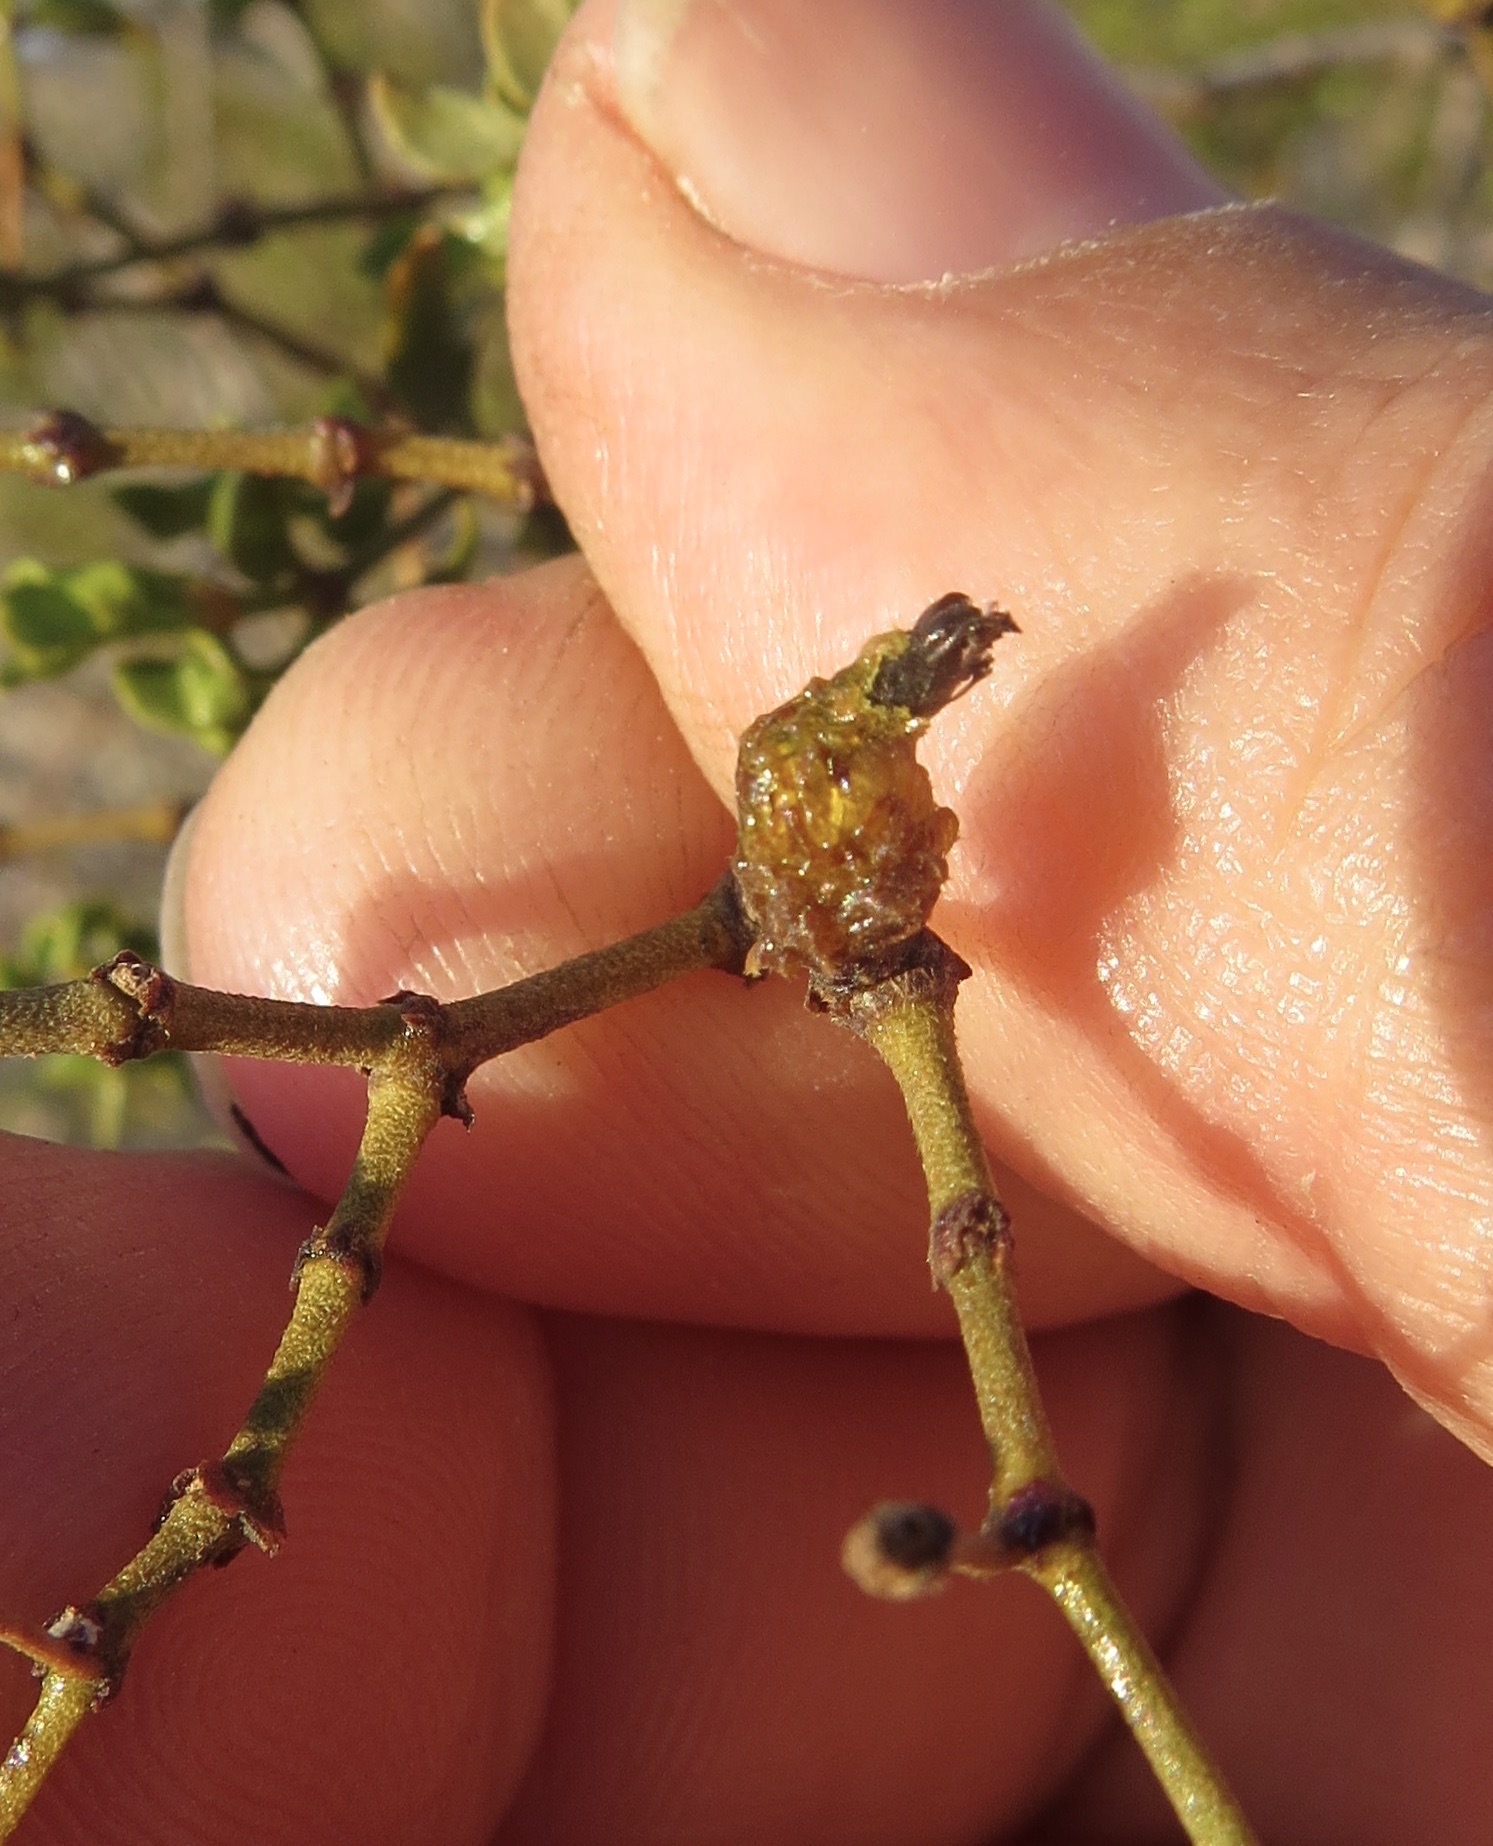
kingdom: Animalia
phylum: Arthropoda
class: Insecta
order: Diptera
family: Cecidomyiidae
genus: Asphondylia
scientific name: Asphondylia resinosa
